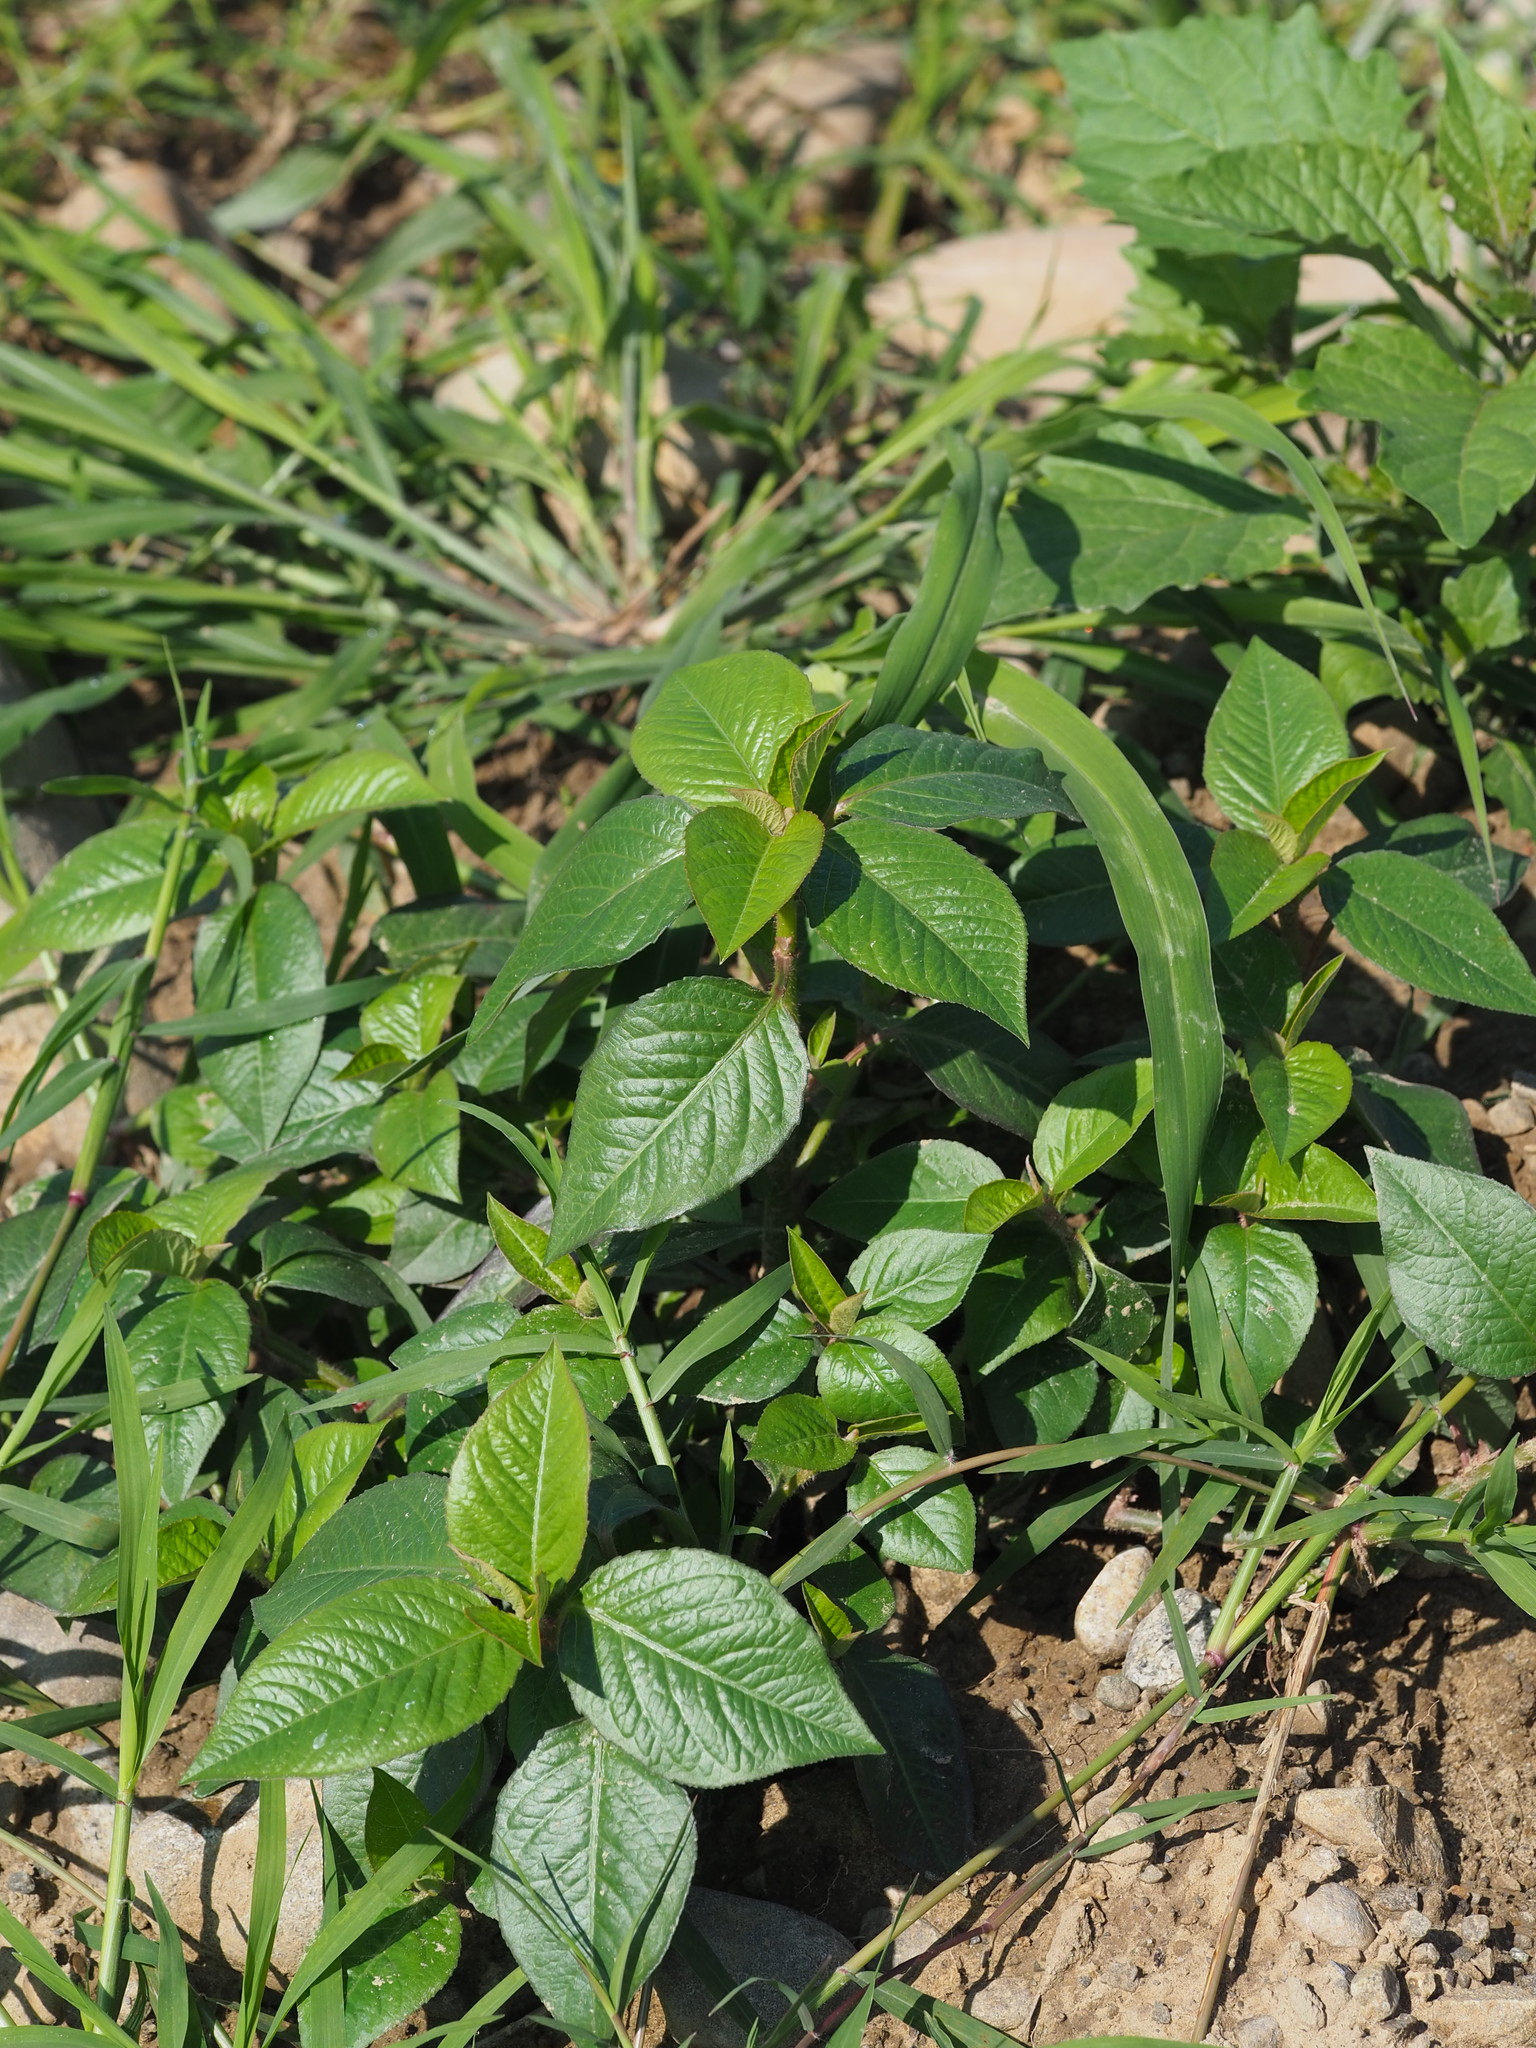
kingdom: Plantae
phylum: Tracheophyta
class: Magnoliopsida
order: Malpighiales
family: Euphorbiaceae
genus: Euphorbia
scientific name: Euphorbia heterophylla
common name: Mexican fireplant
